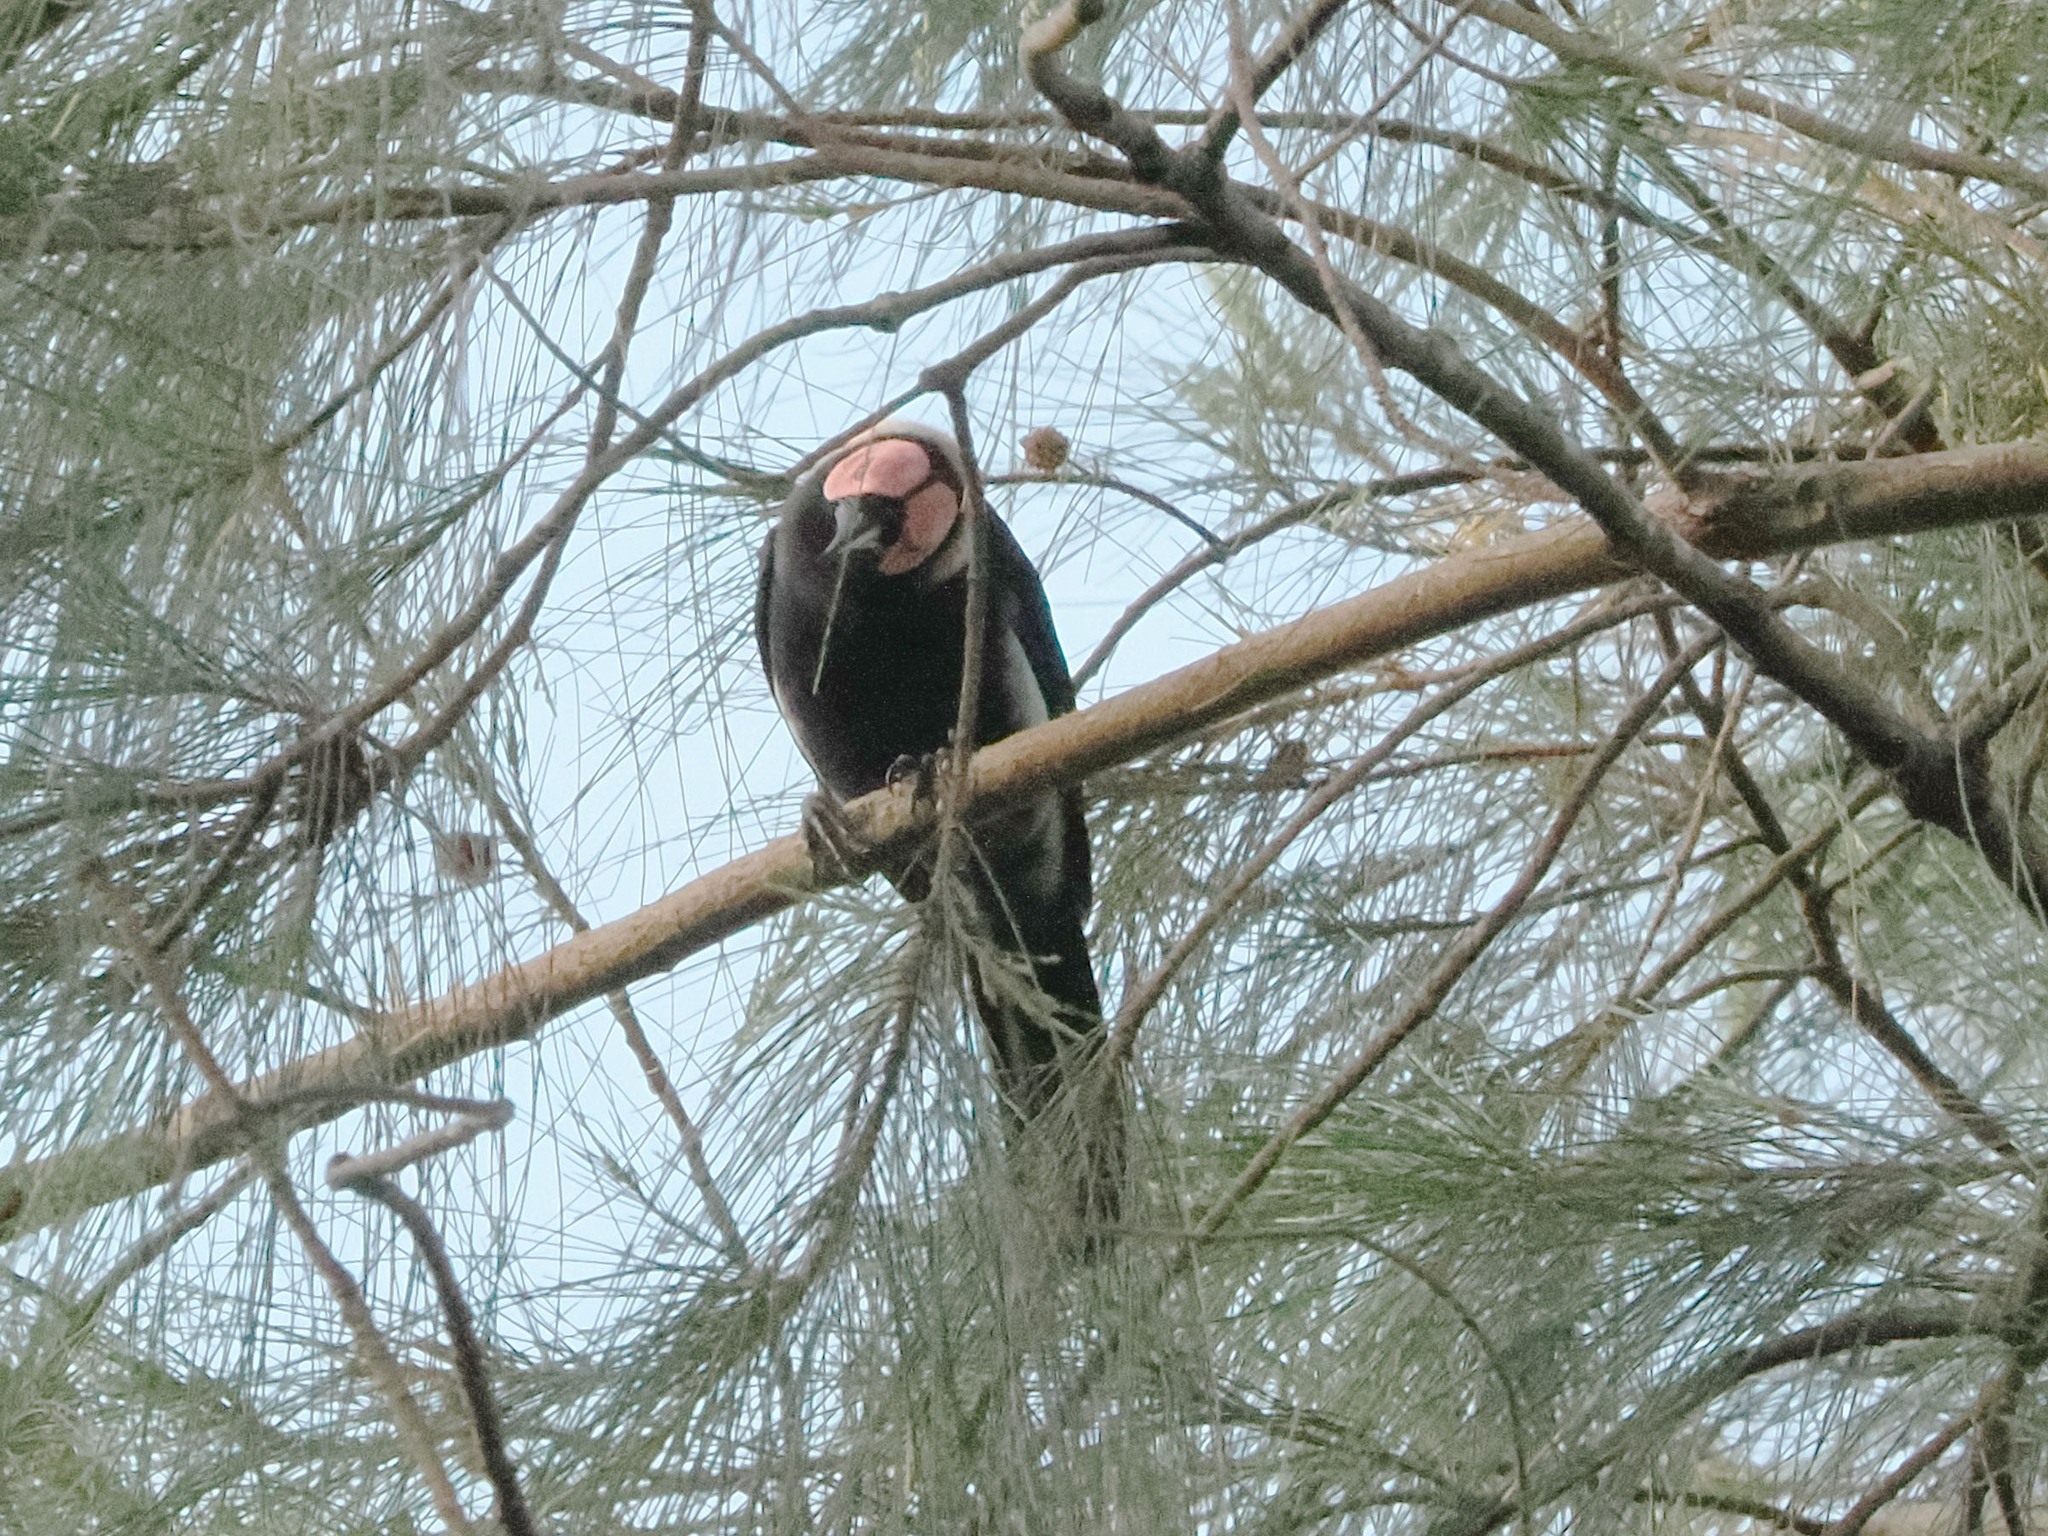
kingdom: Animalia
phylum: Chordata
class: Aves
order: Passeriformes
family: Sturnidae
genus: Sarcops
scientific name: Sarcops calvus
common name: Coleto
